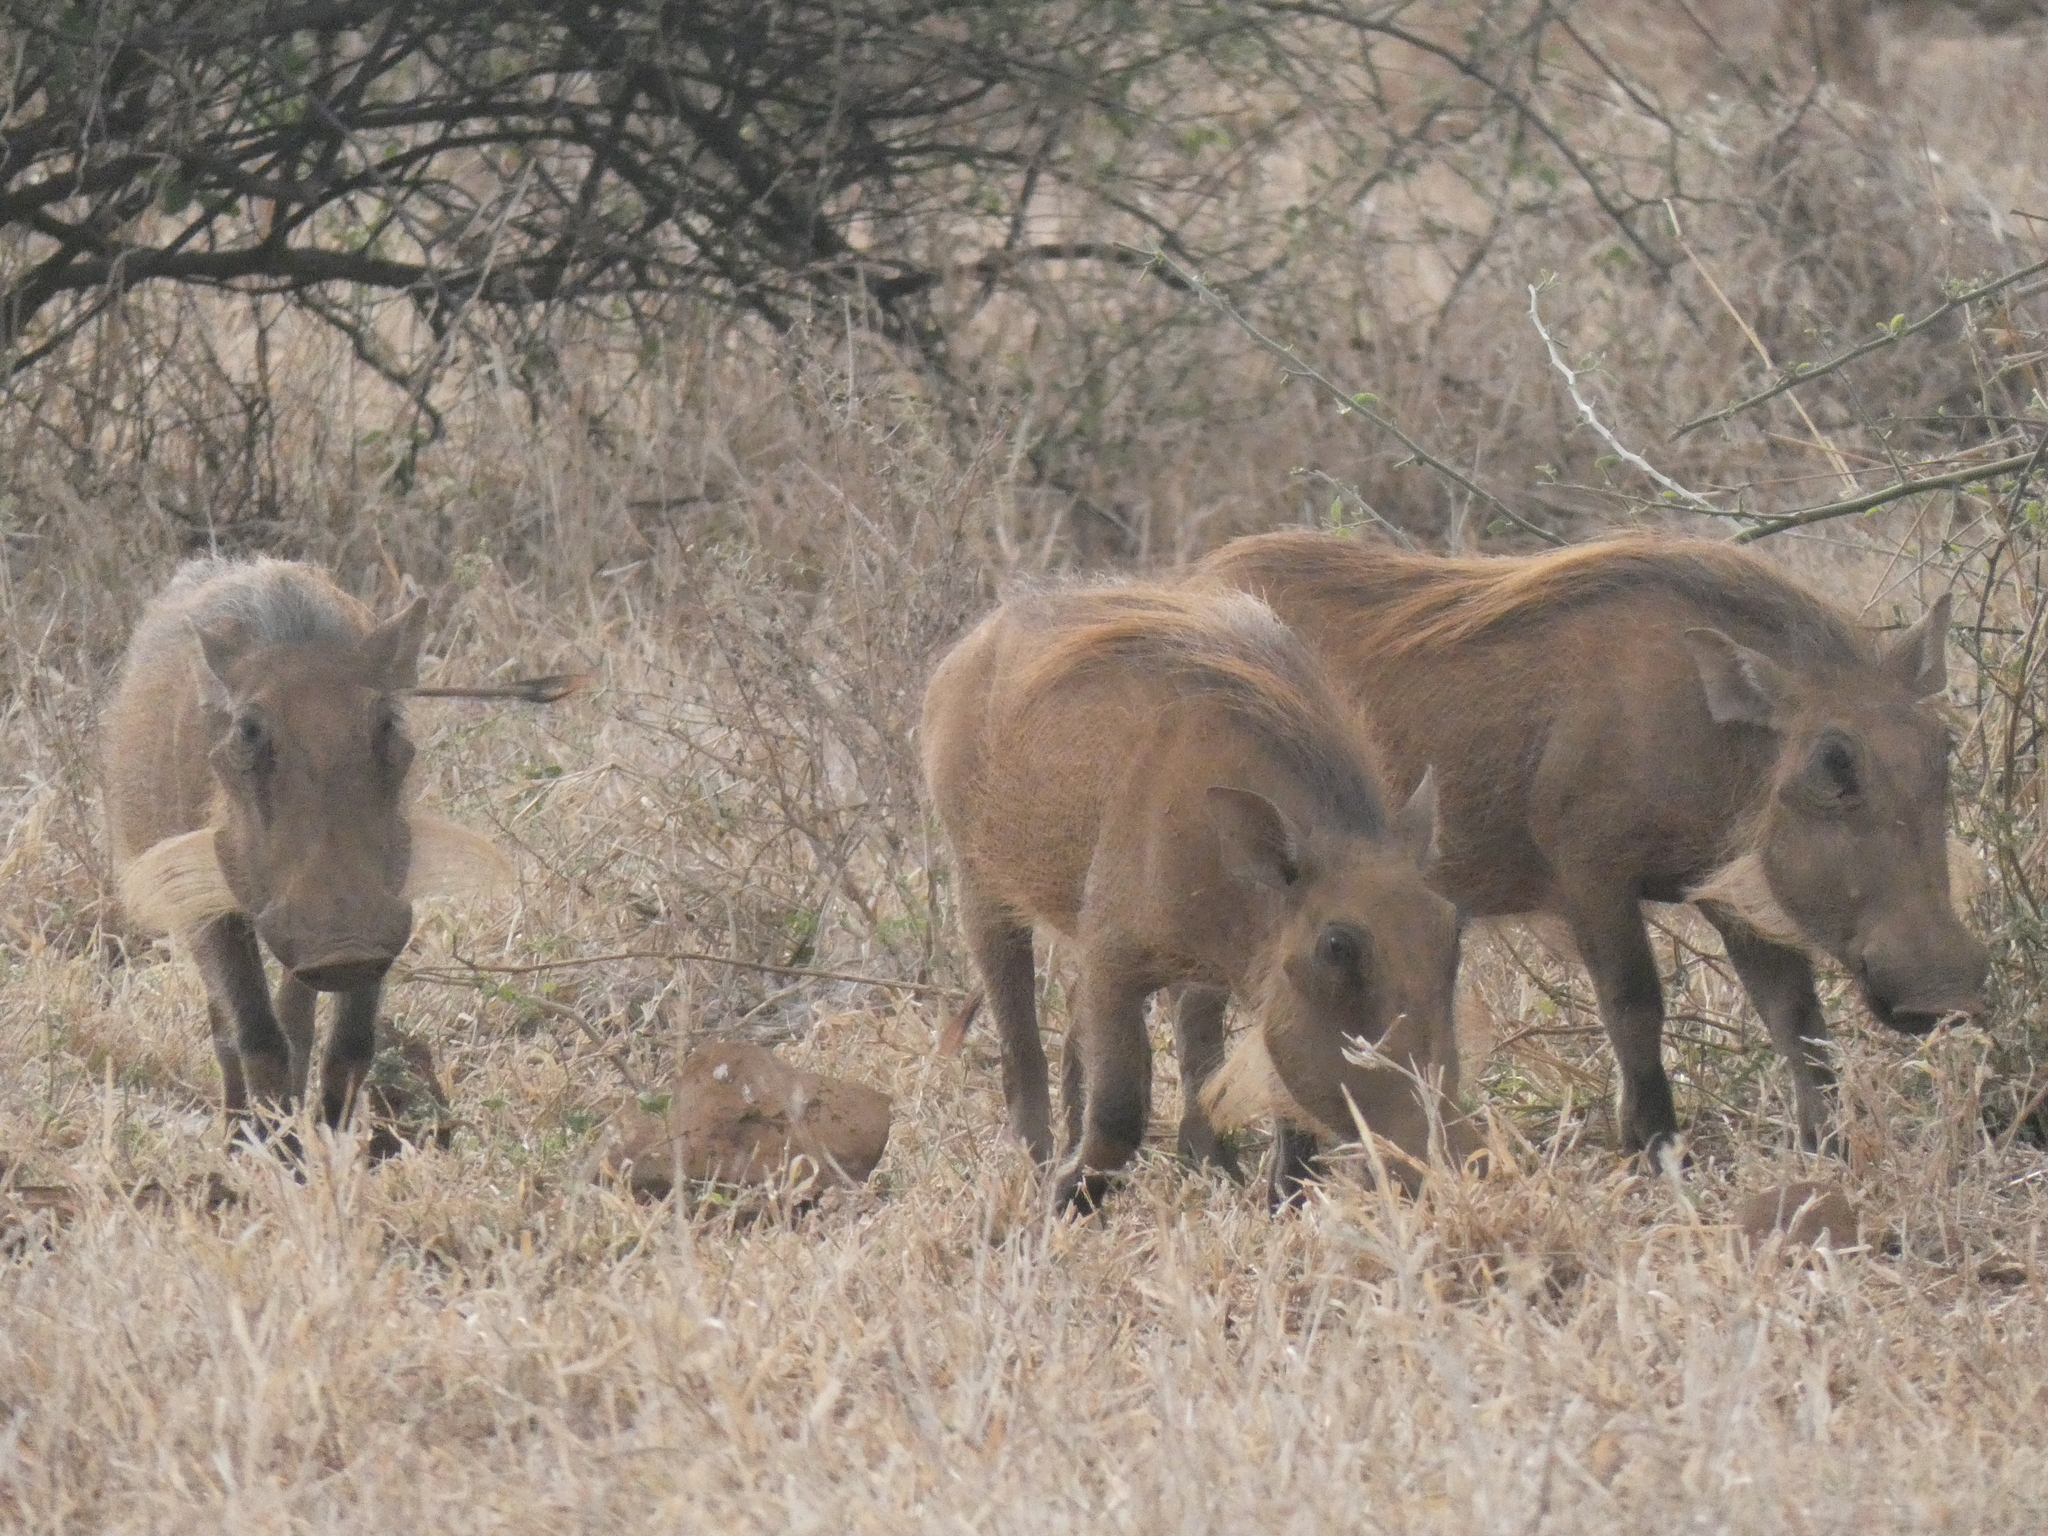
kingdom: Animalia
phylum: Chordata
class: Mammalia
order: Artiodactyla
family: Suidae
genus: Phacochoerus
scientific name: Phacochoerus africanus
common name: Common warthog
